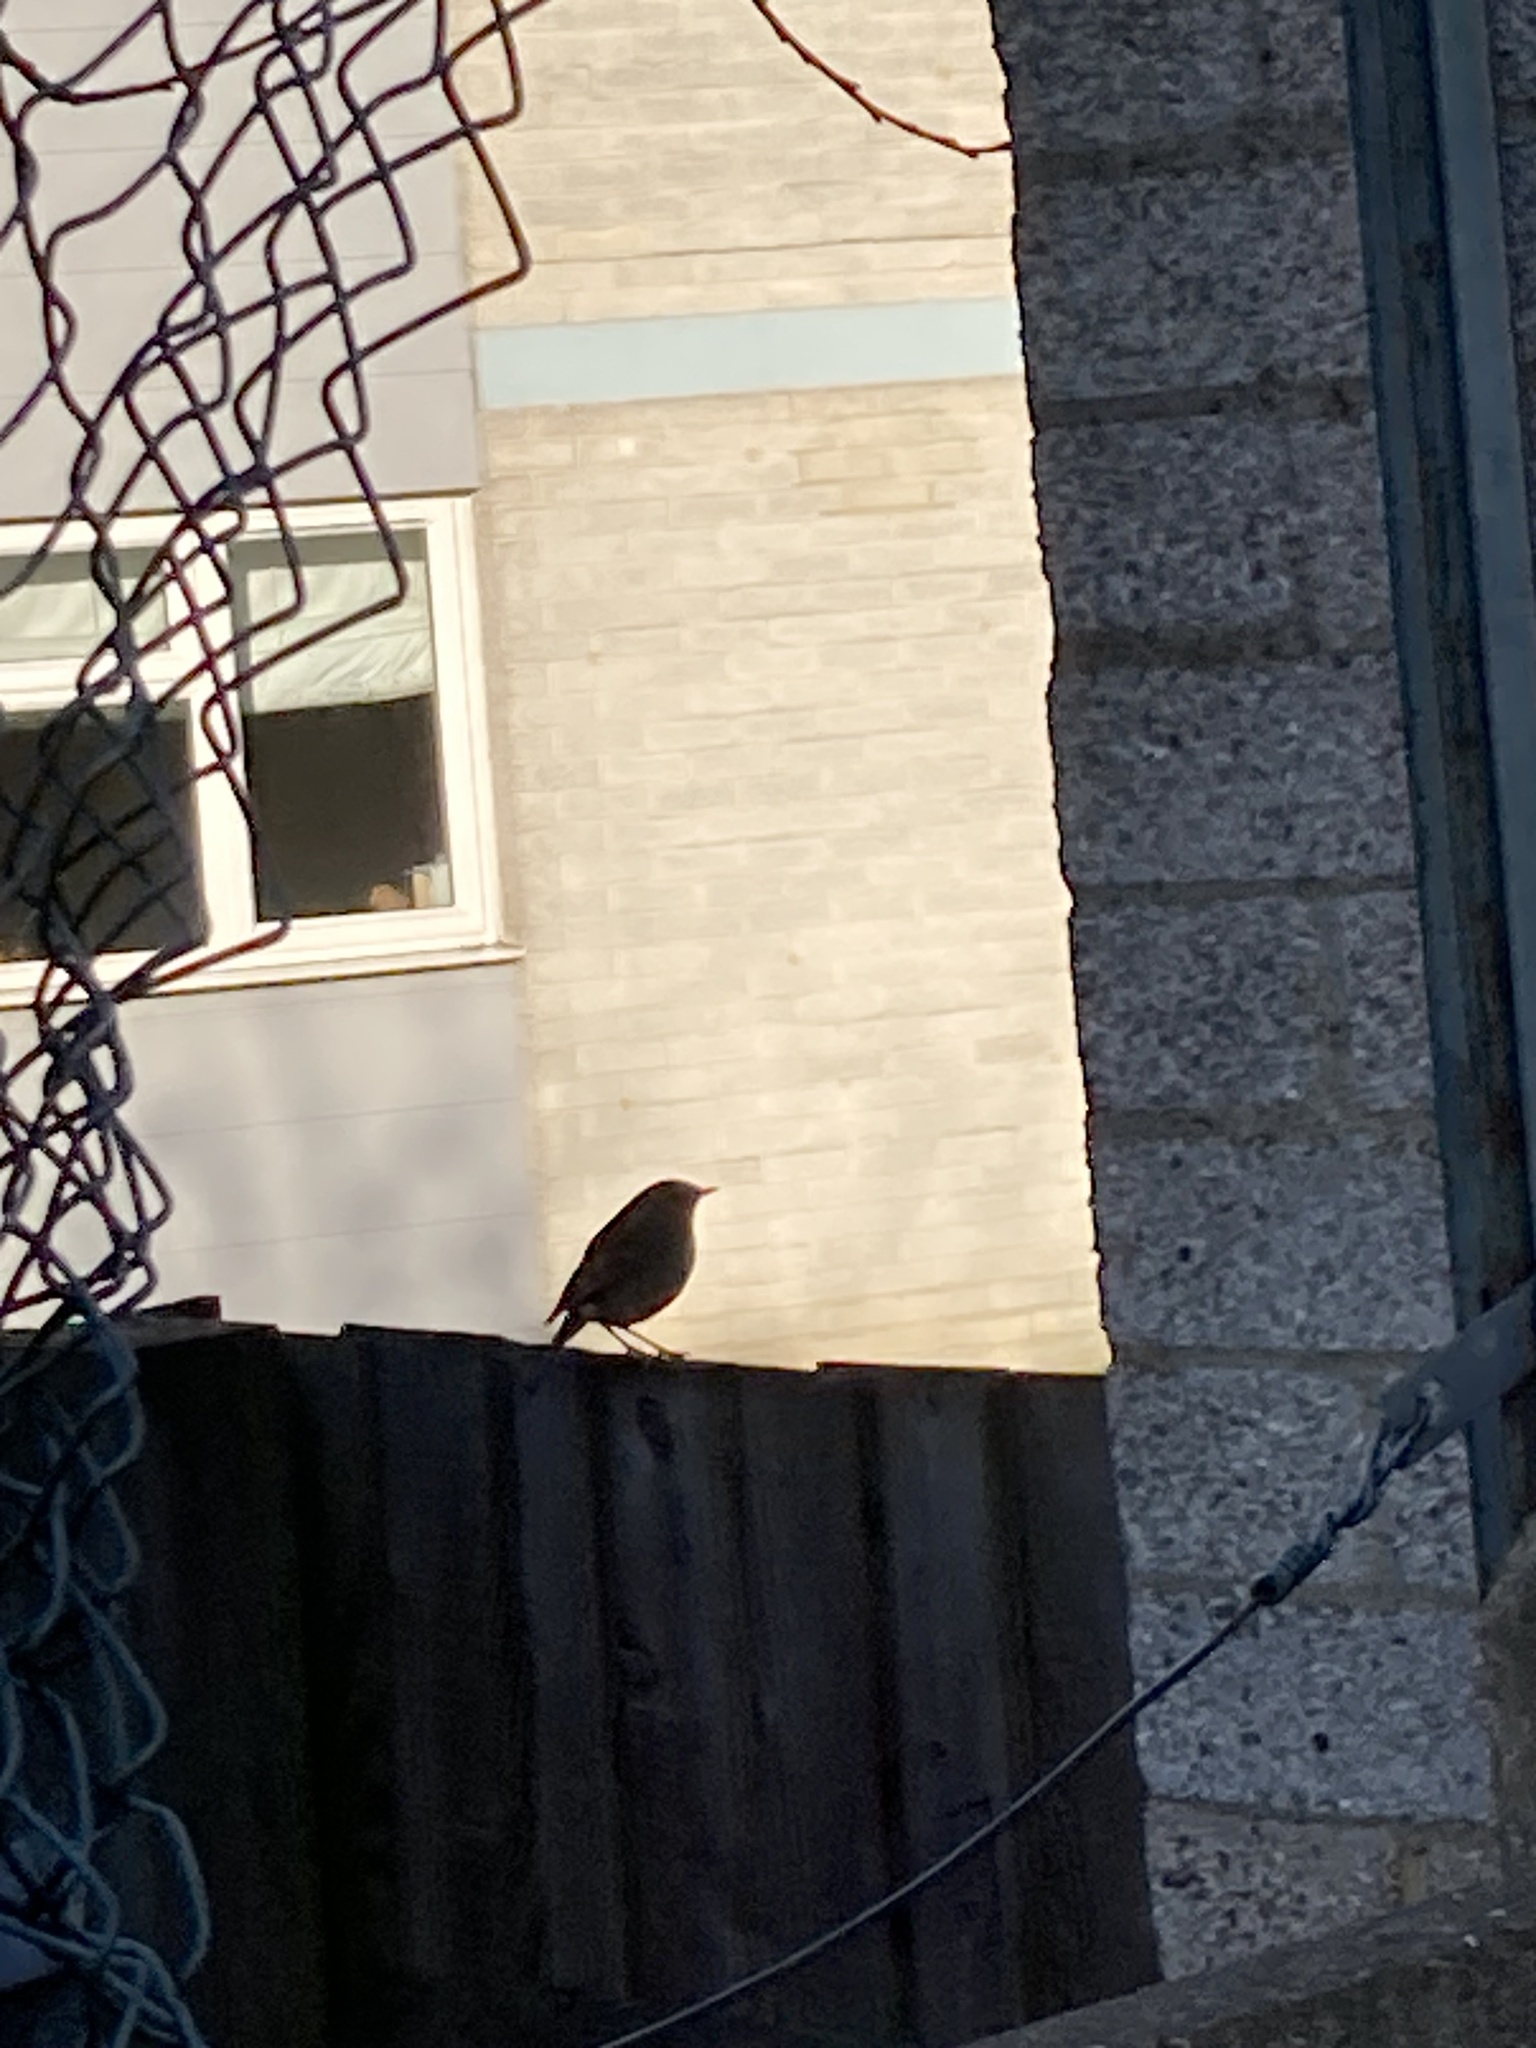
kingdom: Animalia
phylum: Chordata
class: Aves
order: Passeriformes
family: Muscicapidae
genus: Erithacus
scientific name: Erithacus rubecula
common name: European robin
